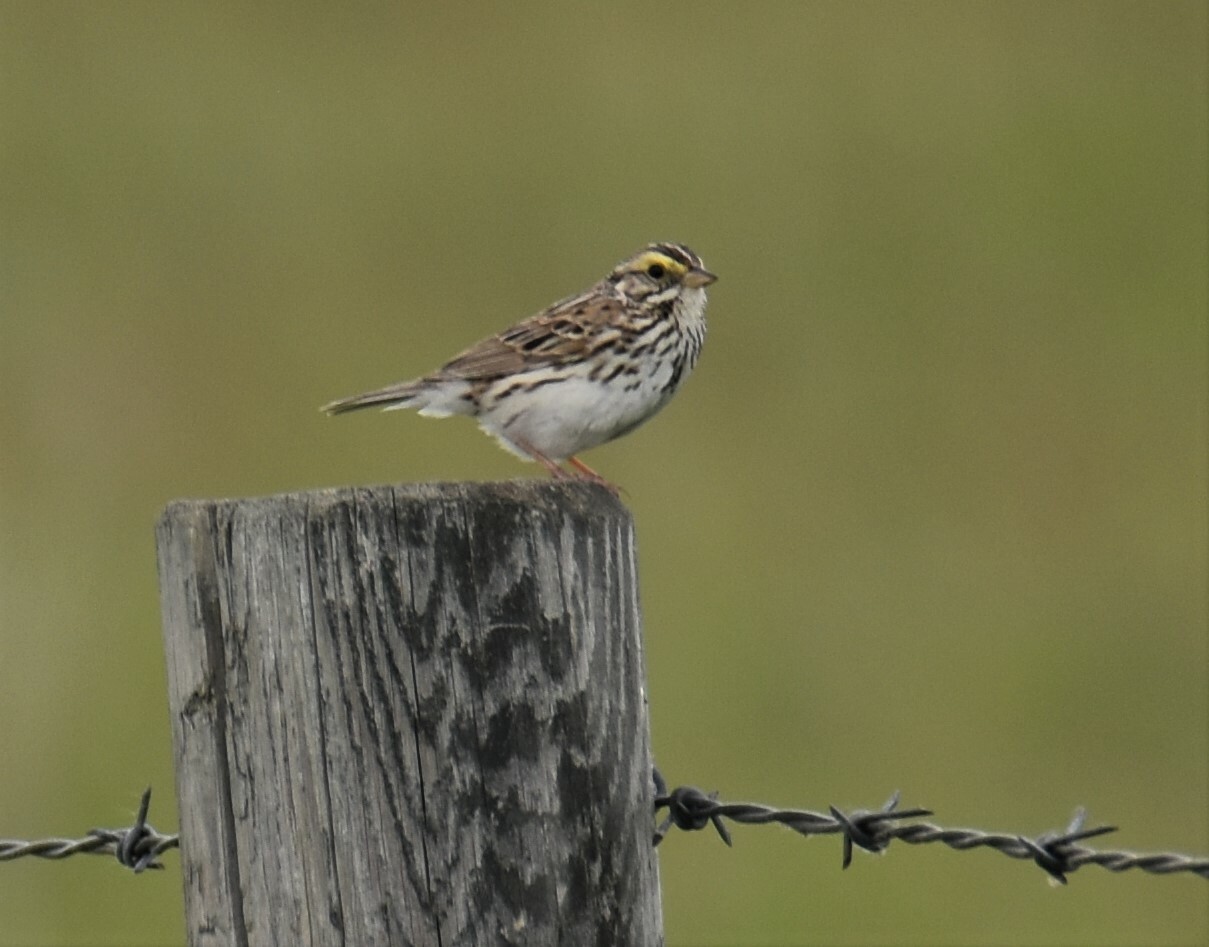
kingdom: Animalia
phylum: Chordata
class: Aves
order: Passeriformes
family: Passerellidae
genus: Passerculus
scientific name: Passerculus sandwichensis
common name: Savannah sparrow
